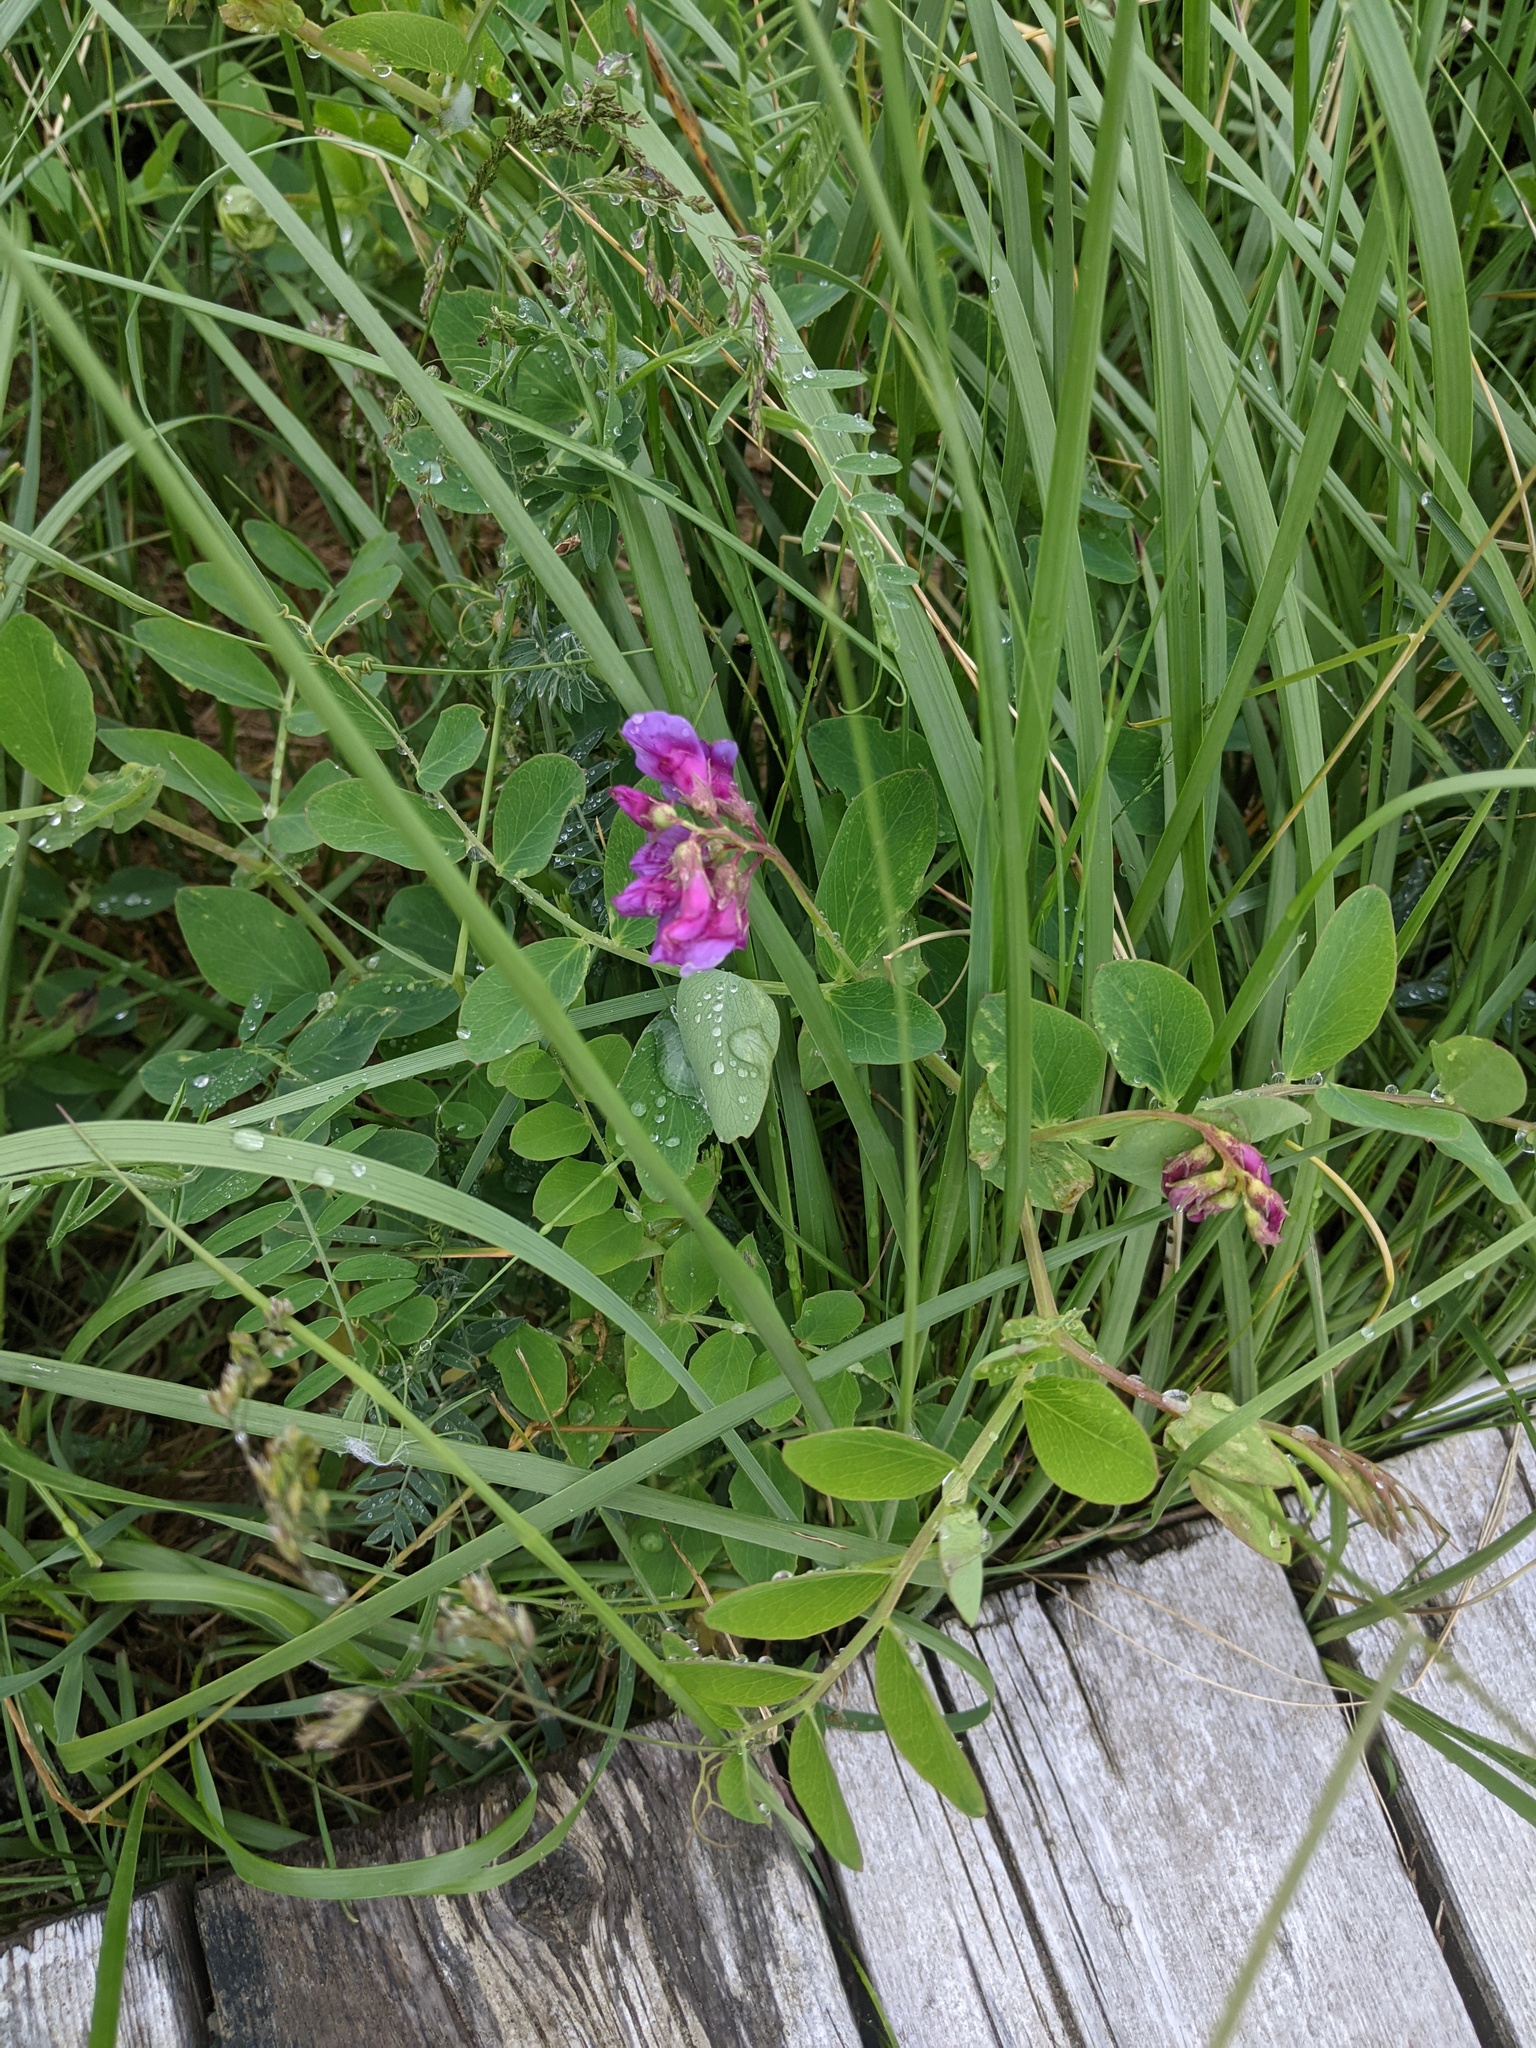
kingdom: Plantae
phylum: Tracheophyta
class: Magnoliopsida
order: Fabales
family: Fabaceae
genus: Lathyrus
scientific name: Lathyrus japonicus
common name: Sea pea
